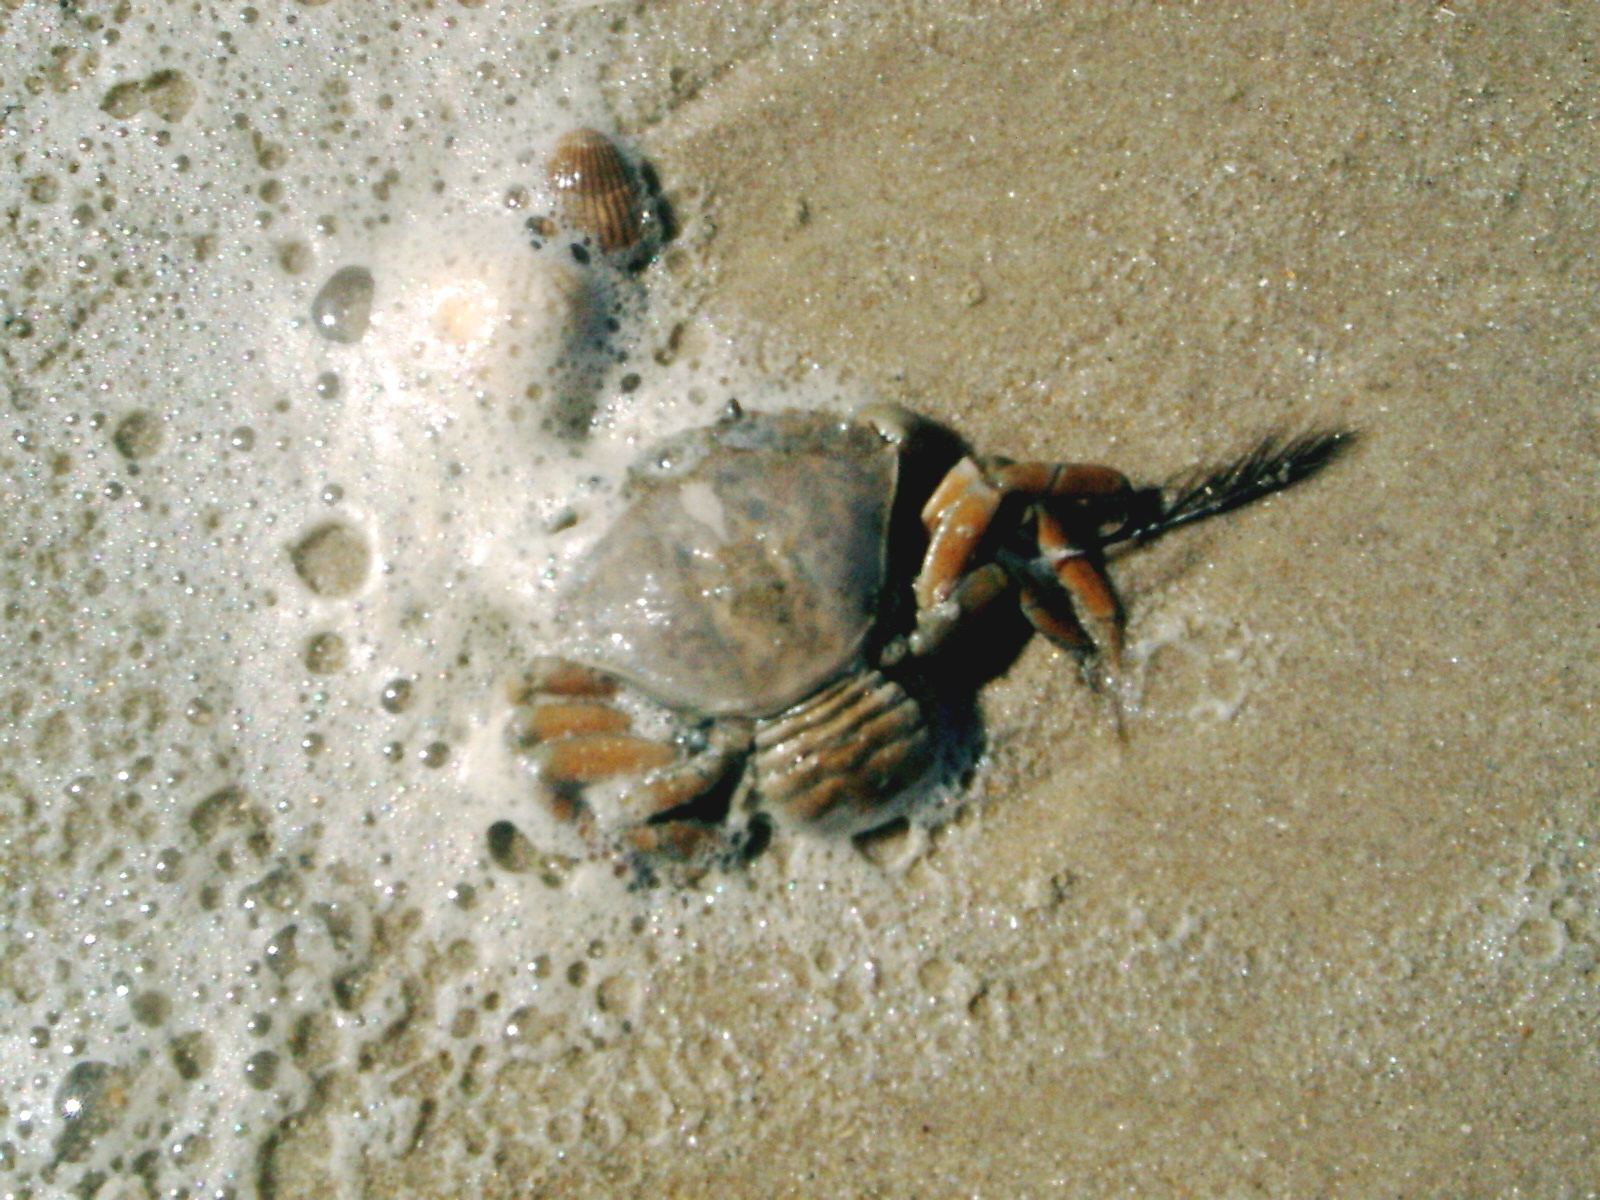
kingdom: Animalia
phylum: Arthropoda
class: Malacostraca
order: Decapoda
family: Carcinidae
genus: Carcinus
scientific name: Carcinus maenas
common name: European green crab
